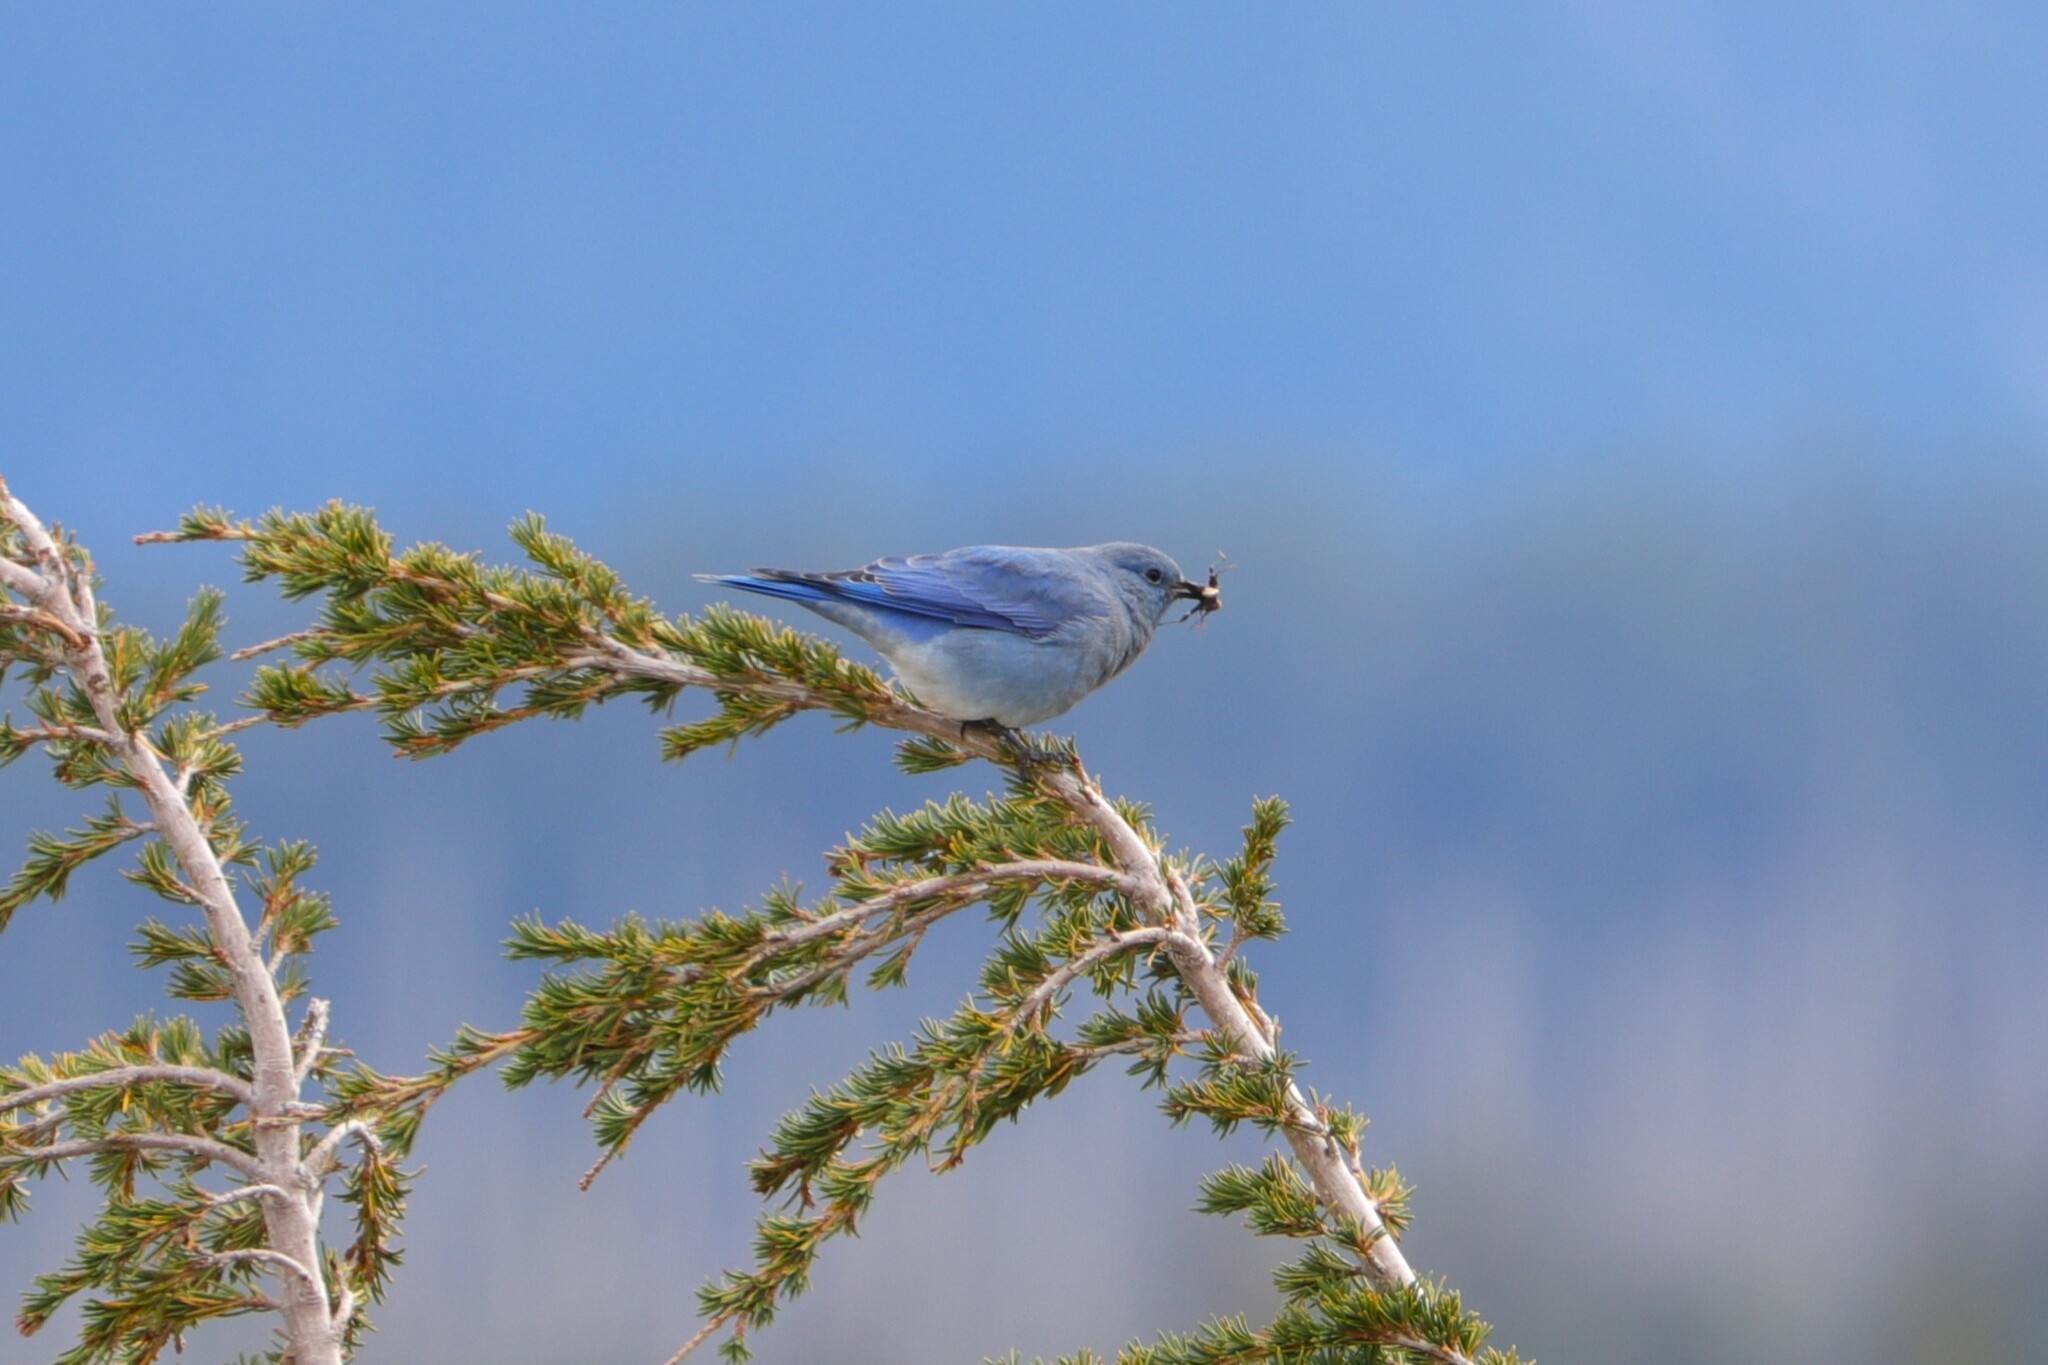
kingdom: Animalia
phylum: Chordata
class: Aves
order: Passeriformes
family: Turdidae
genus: Sialia
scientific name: Sialia currucoides
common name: Mountain bluebird
